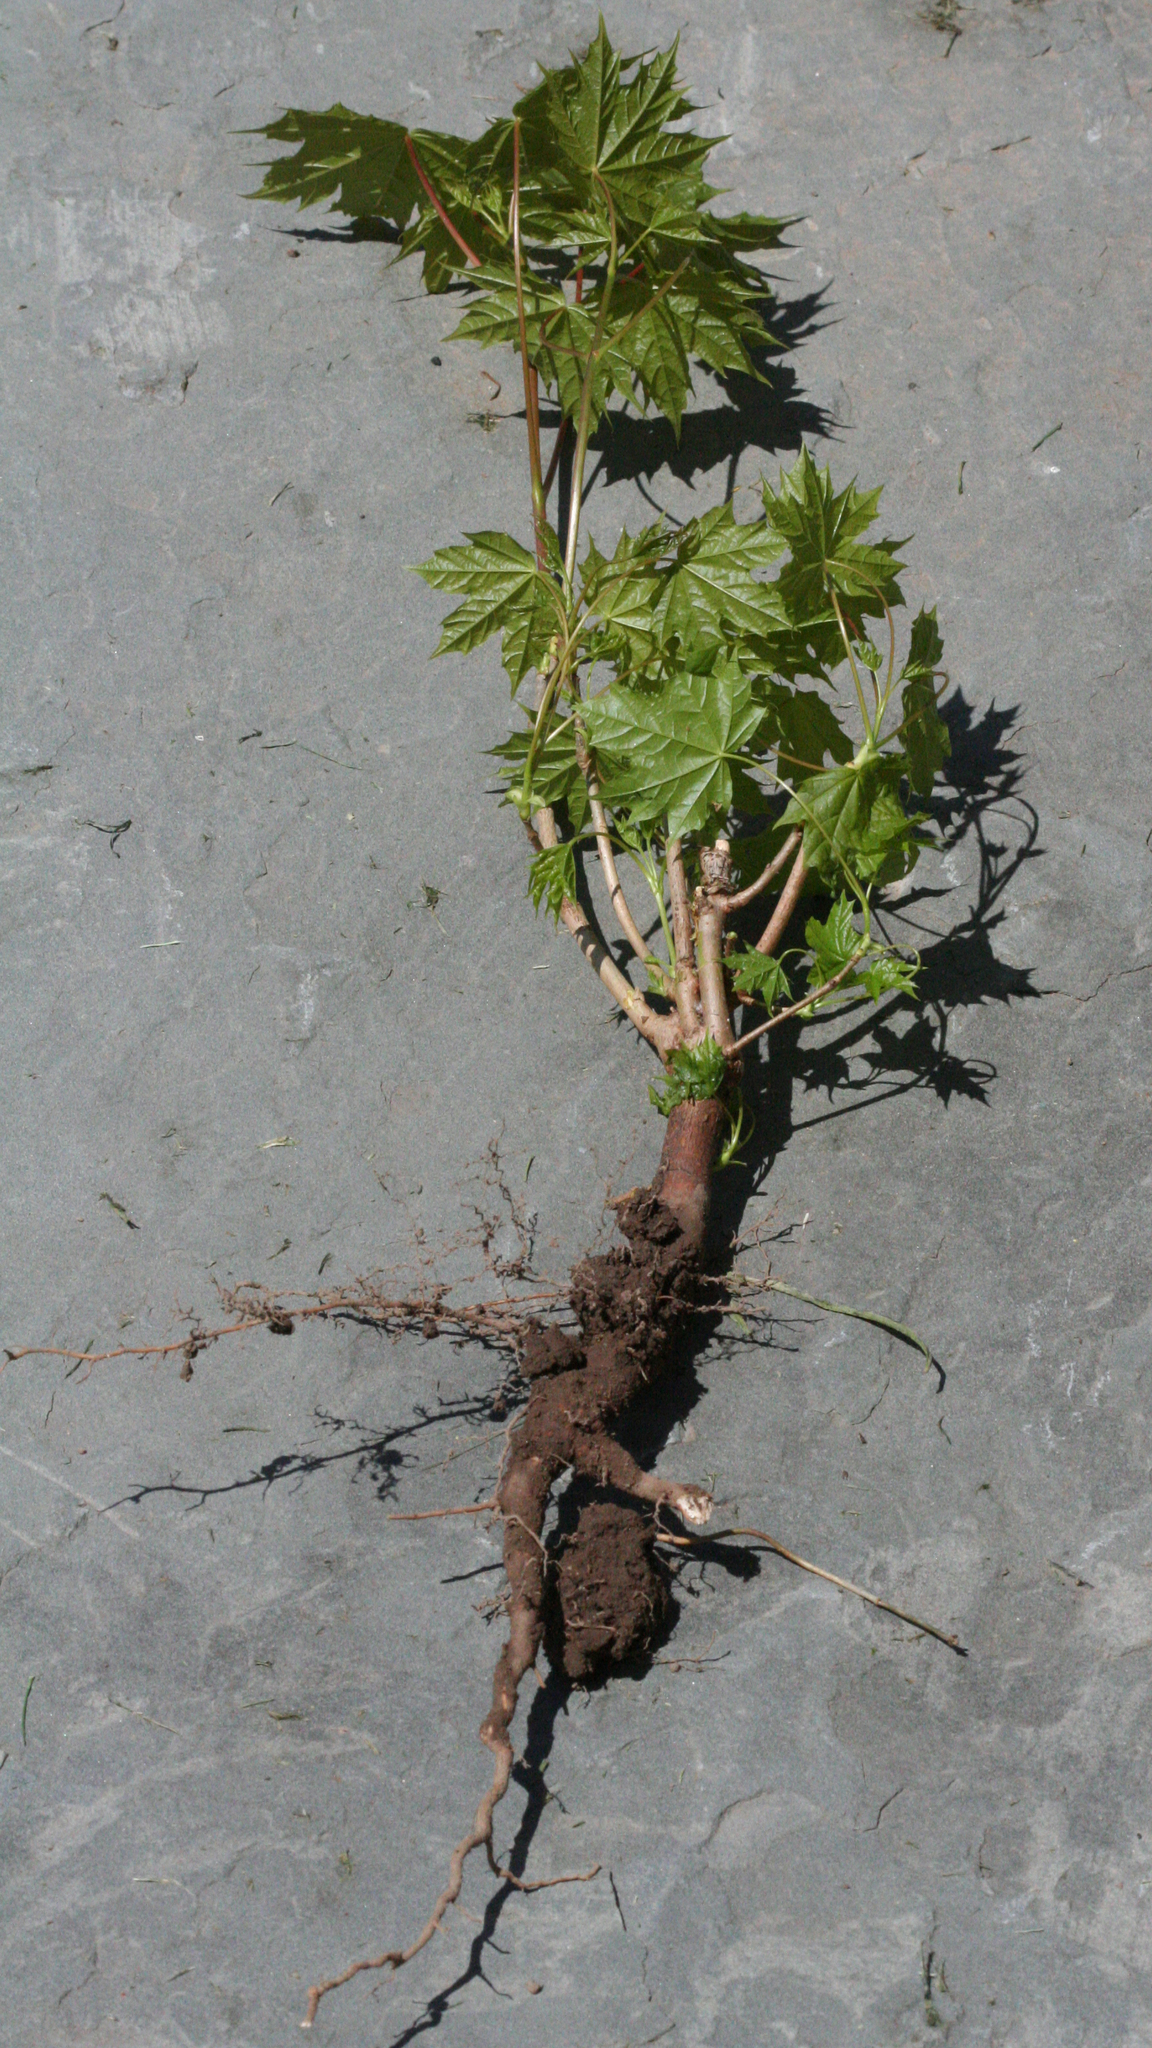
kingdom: Plantae
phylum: Tracheophyta
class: Magnoliopsida
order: Sapindales
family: Sapindaceae
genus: Acer
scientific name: Acer platanoides
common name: Norway maple
